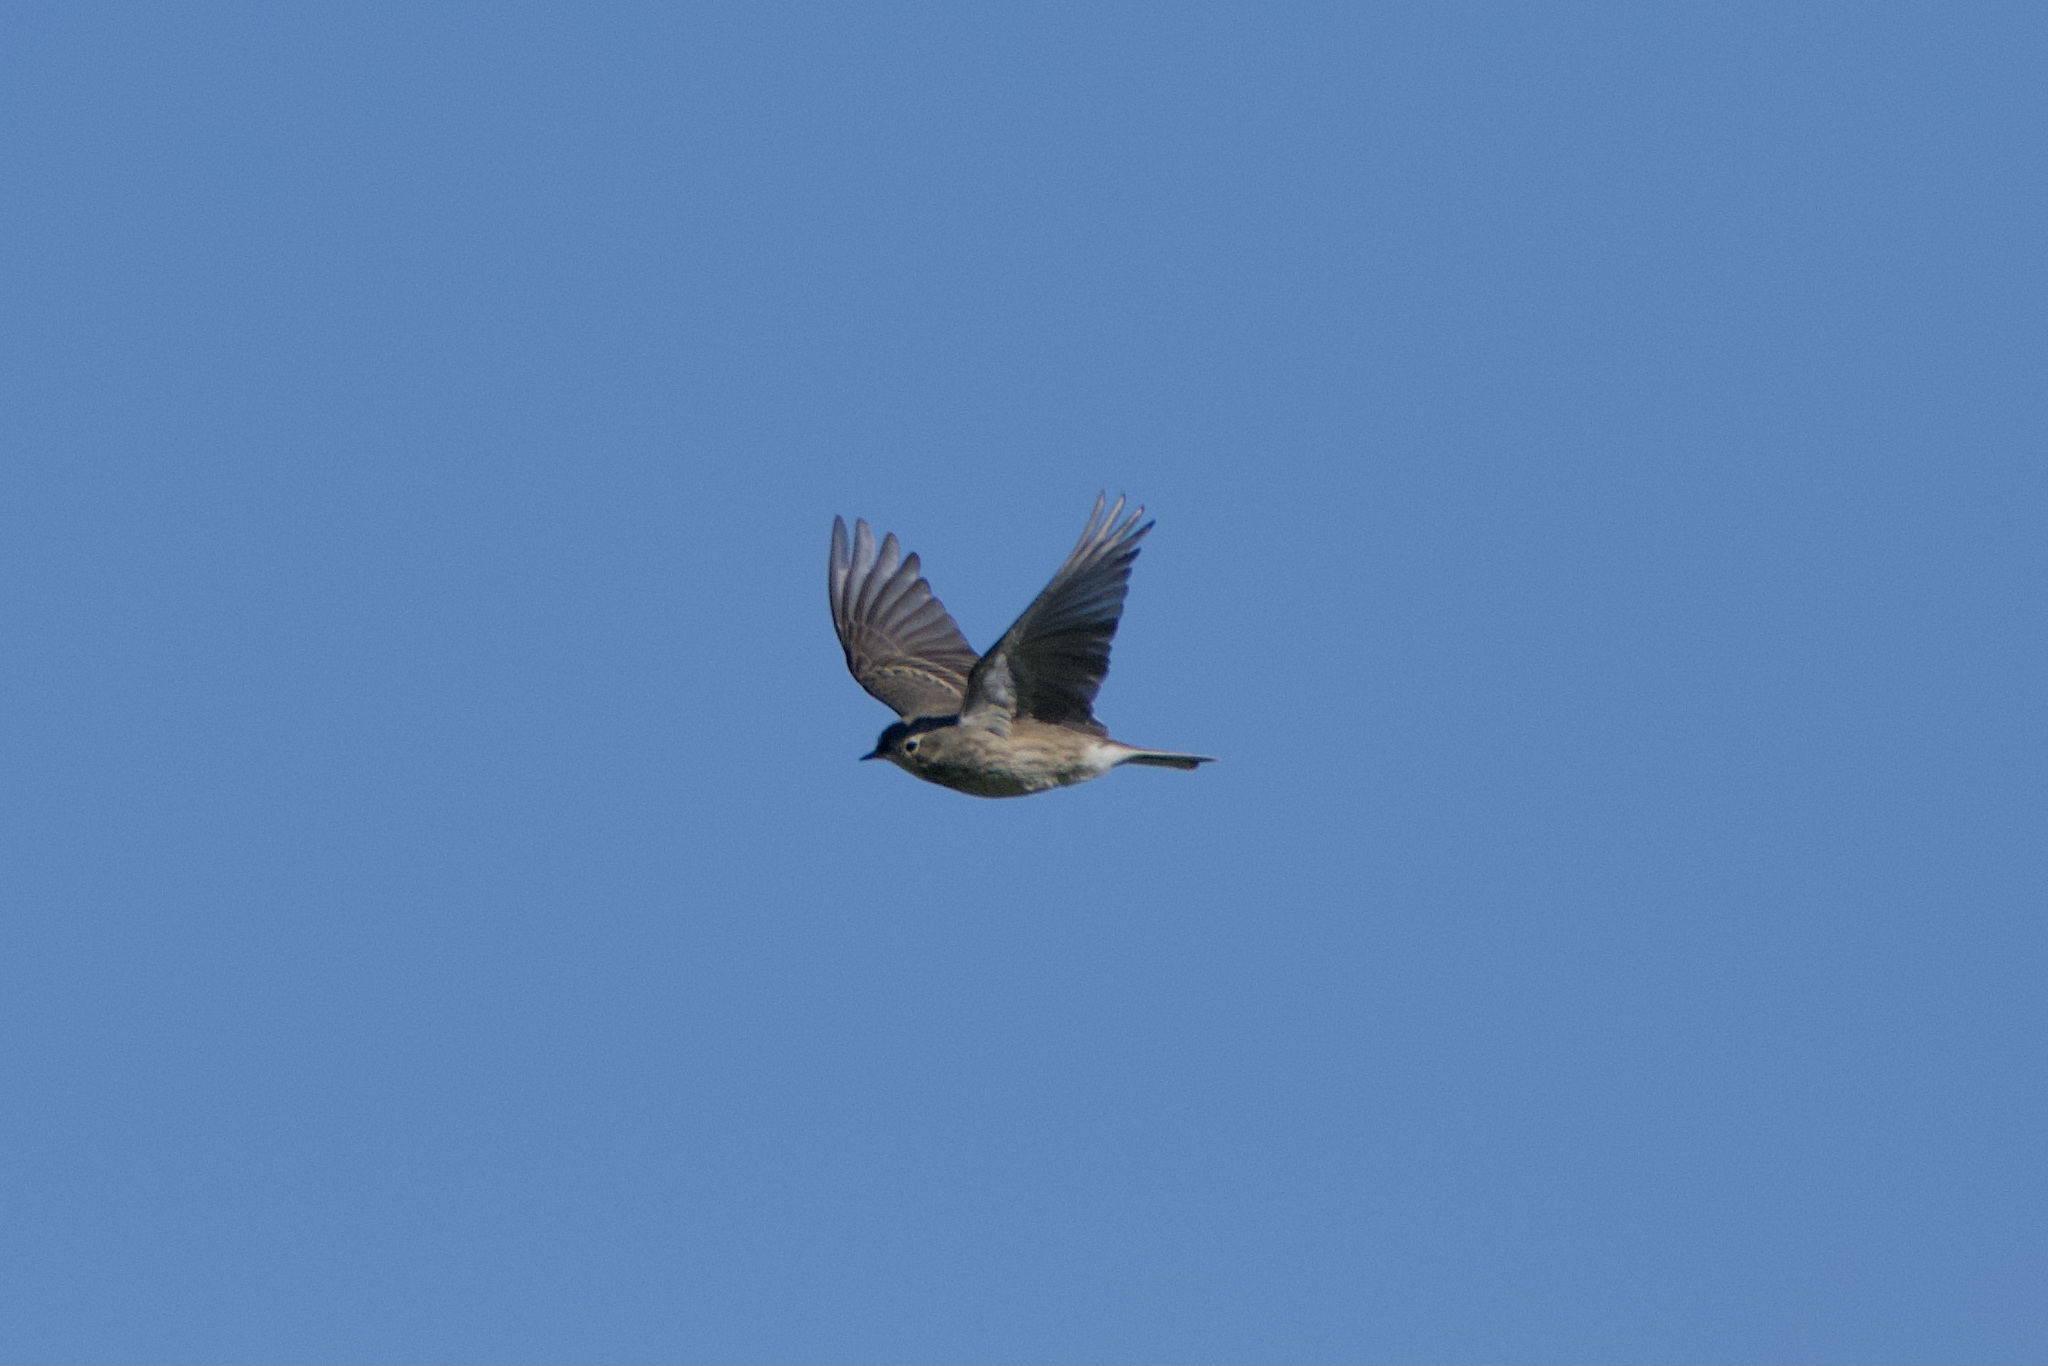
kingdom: Animalia
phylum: Chordata
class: Aves
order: Passeriformes
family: Motacillidae
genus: Anthus
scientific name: Anthus rubescens
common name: Buff-bellied pipit
